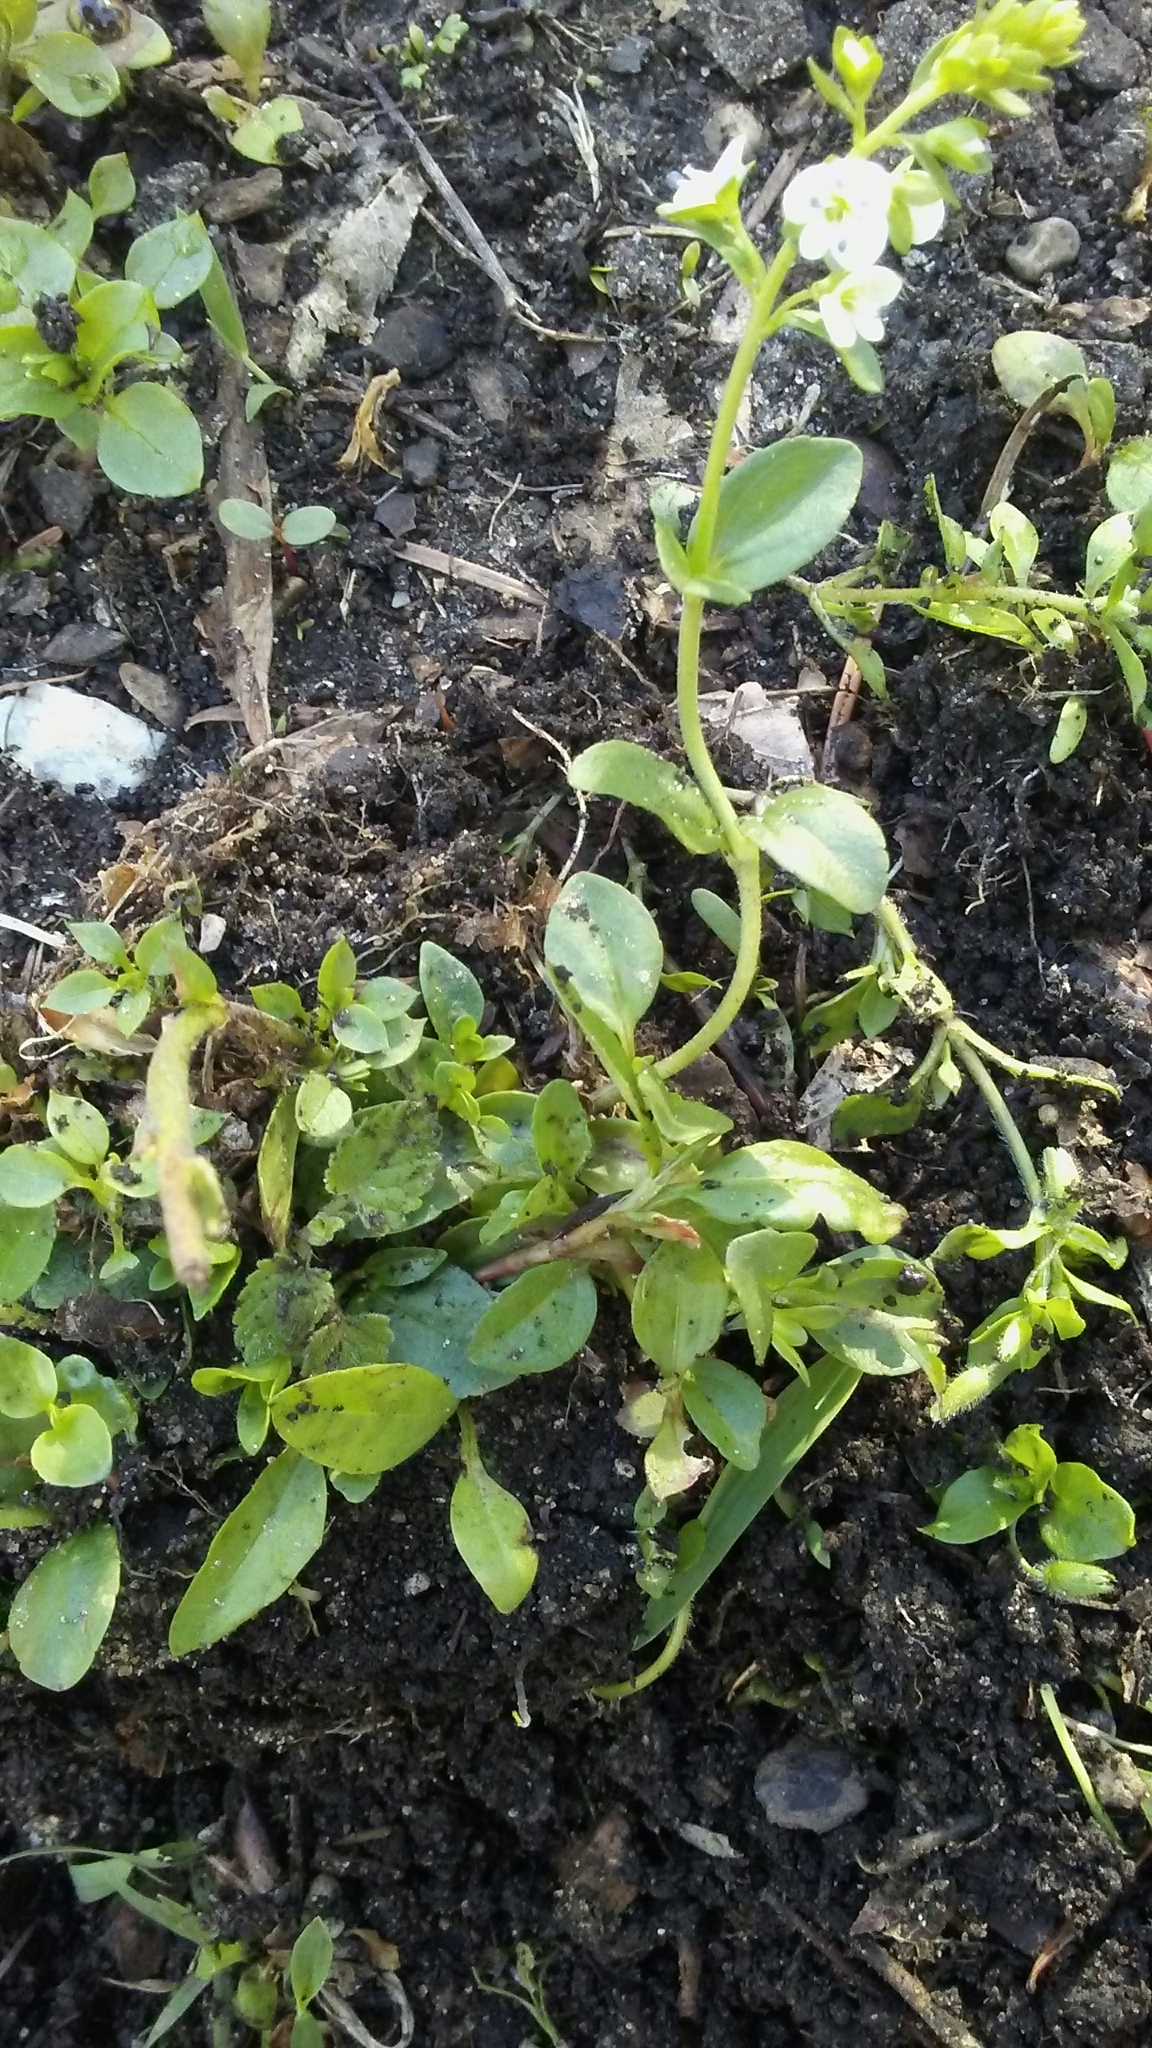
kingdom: Plantae
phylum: Tracheophyta
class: Magnoliopsida
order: Lamiales
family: Plantaginaceae
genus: Veronica
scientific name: Veronica serpyllifolia
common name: Thyme-leaved speedwell
